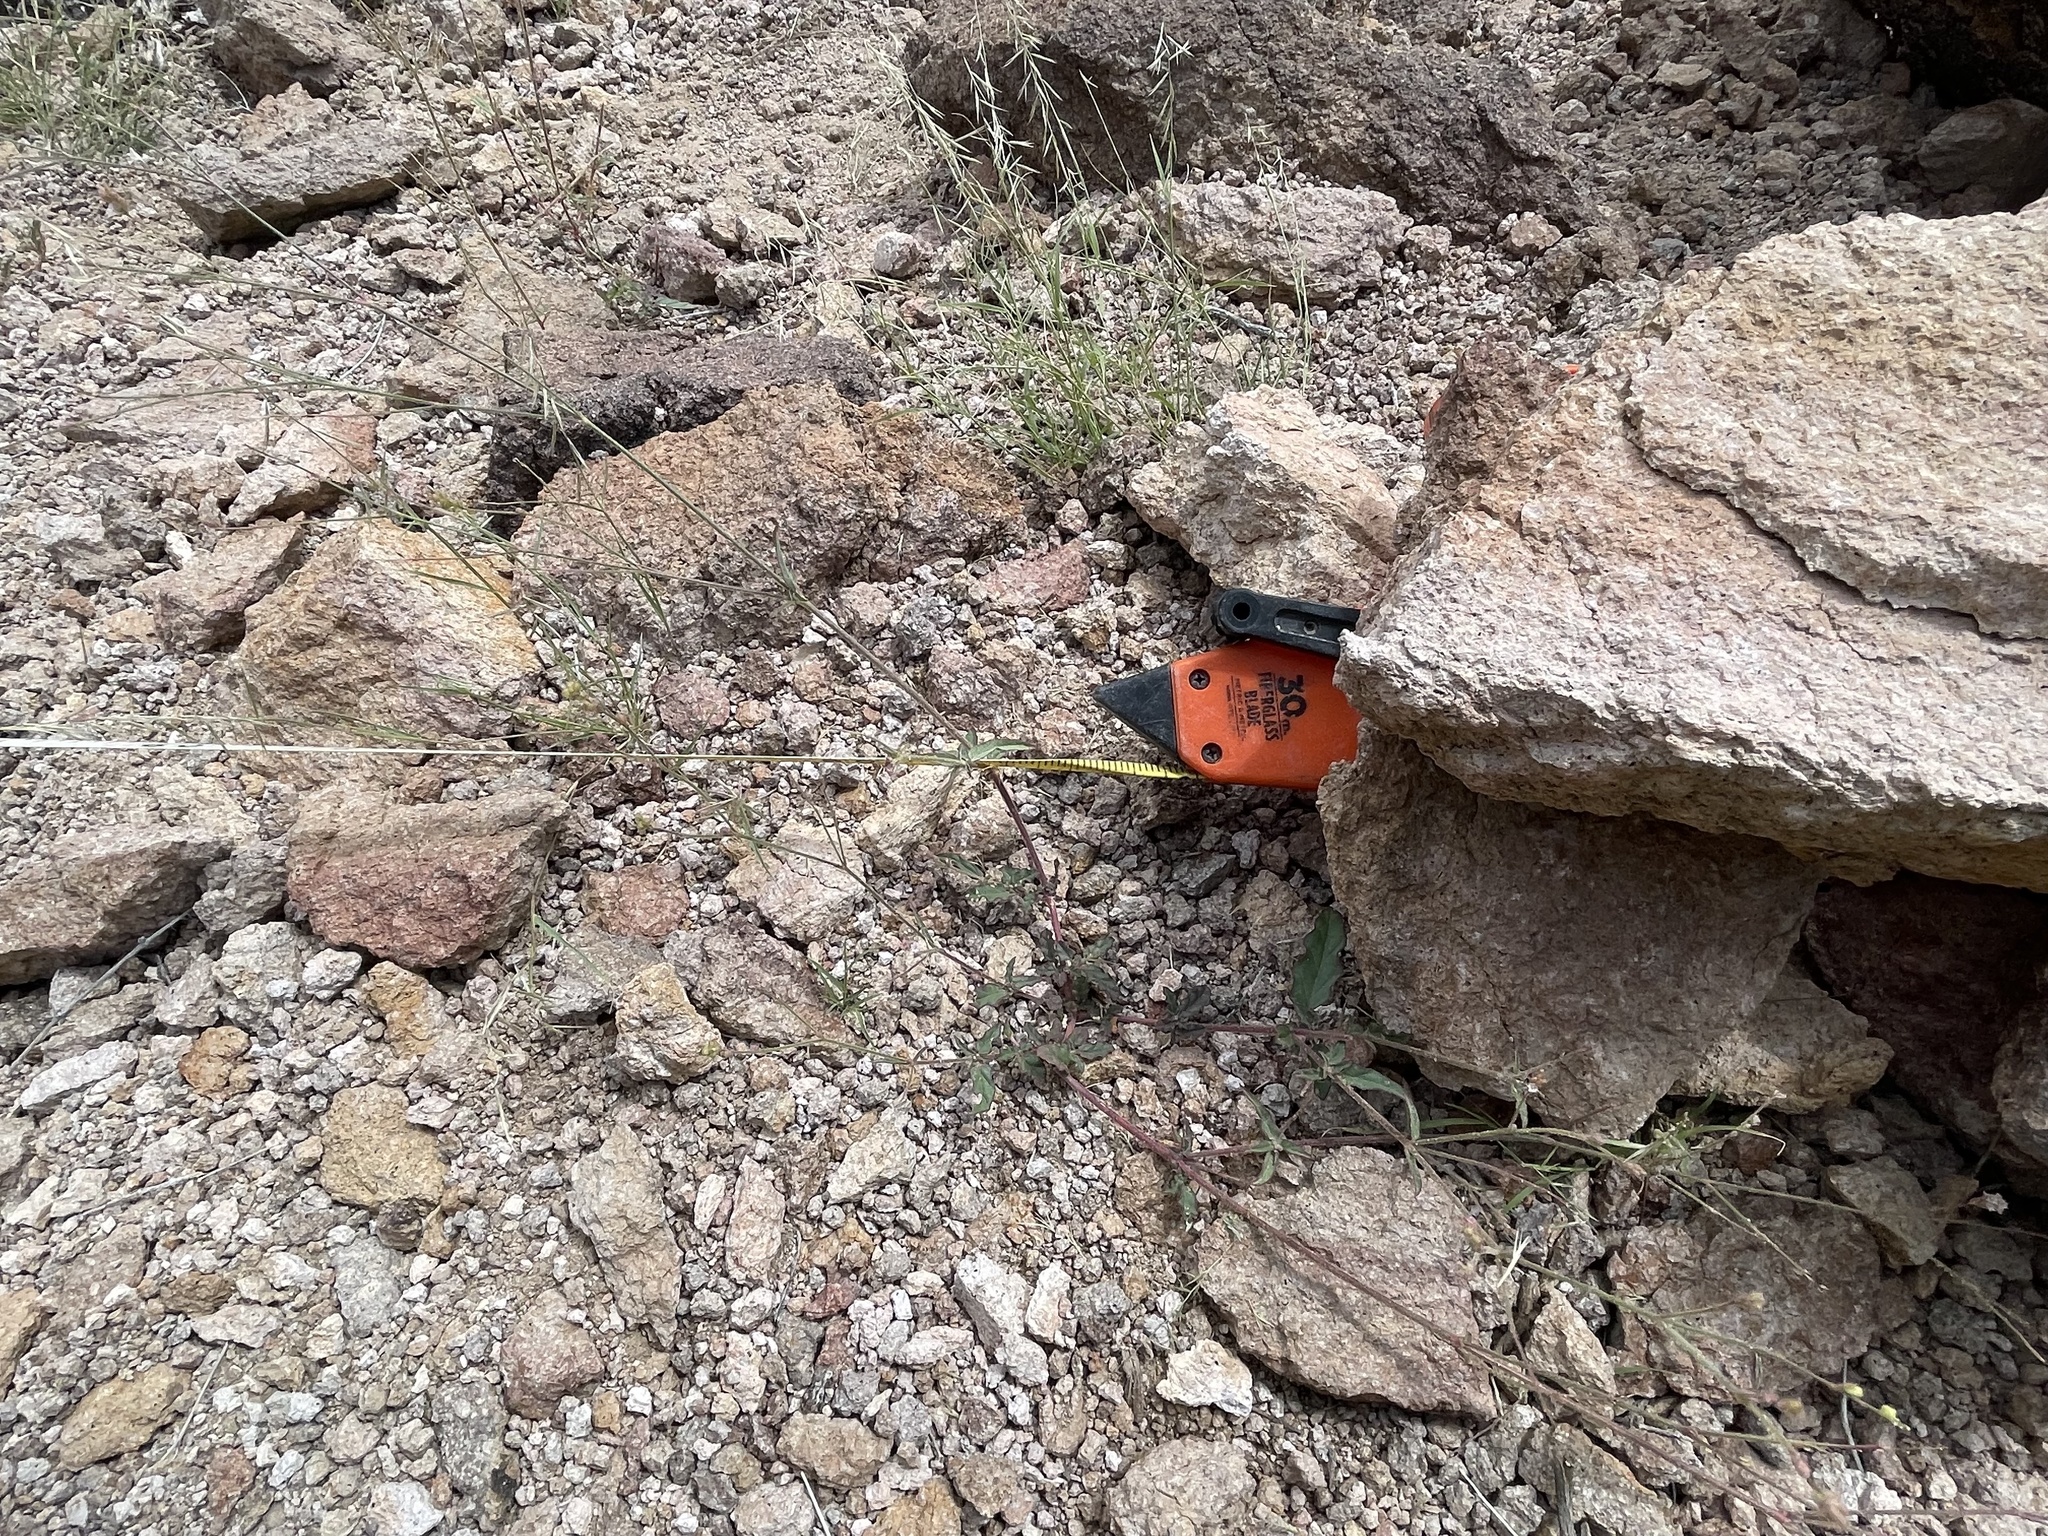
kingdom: Plantae
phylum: Tracheophyta
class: Magnoliopsida
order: Caryophyllales
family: Nyctaginaceae
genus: Boerhavia
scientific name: Boerhavia wrightii
